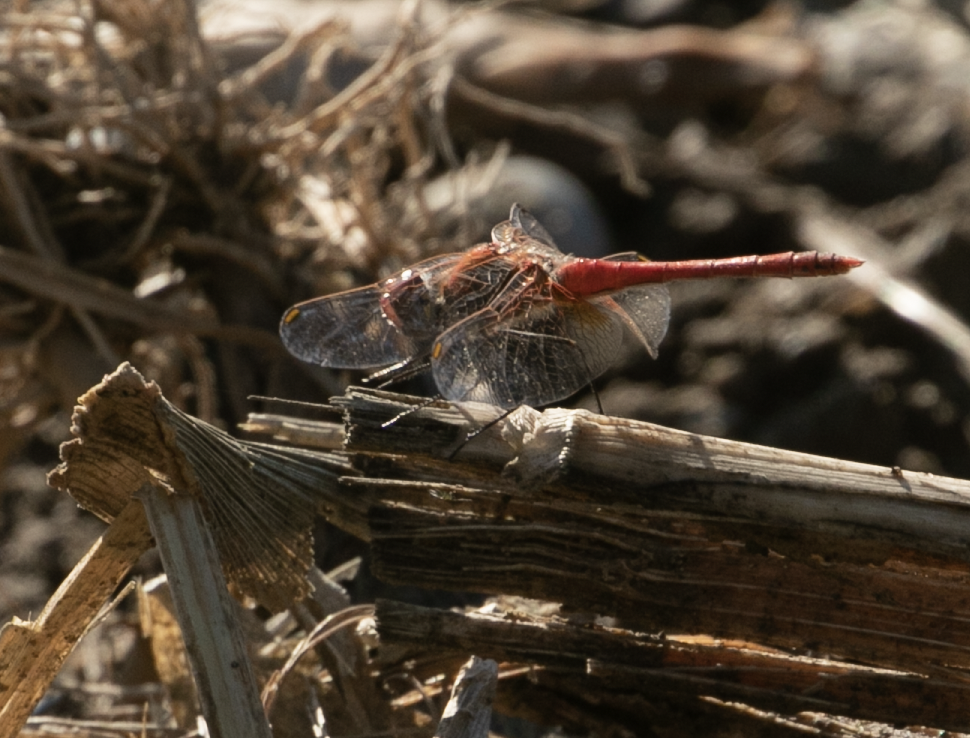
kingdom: Animalia
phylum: Arthropoda
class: Insecta
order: Odonata
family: Libellulidae
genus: Sympetrum
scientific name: Sympetrum fonscolombii
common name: Red-veined darter
